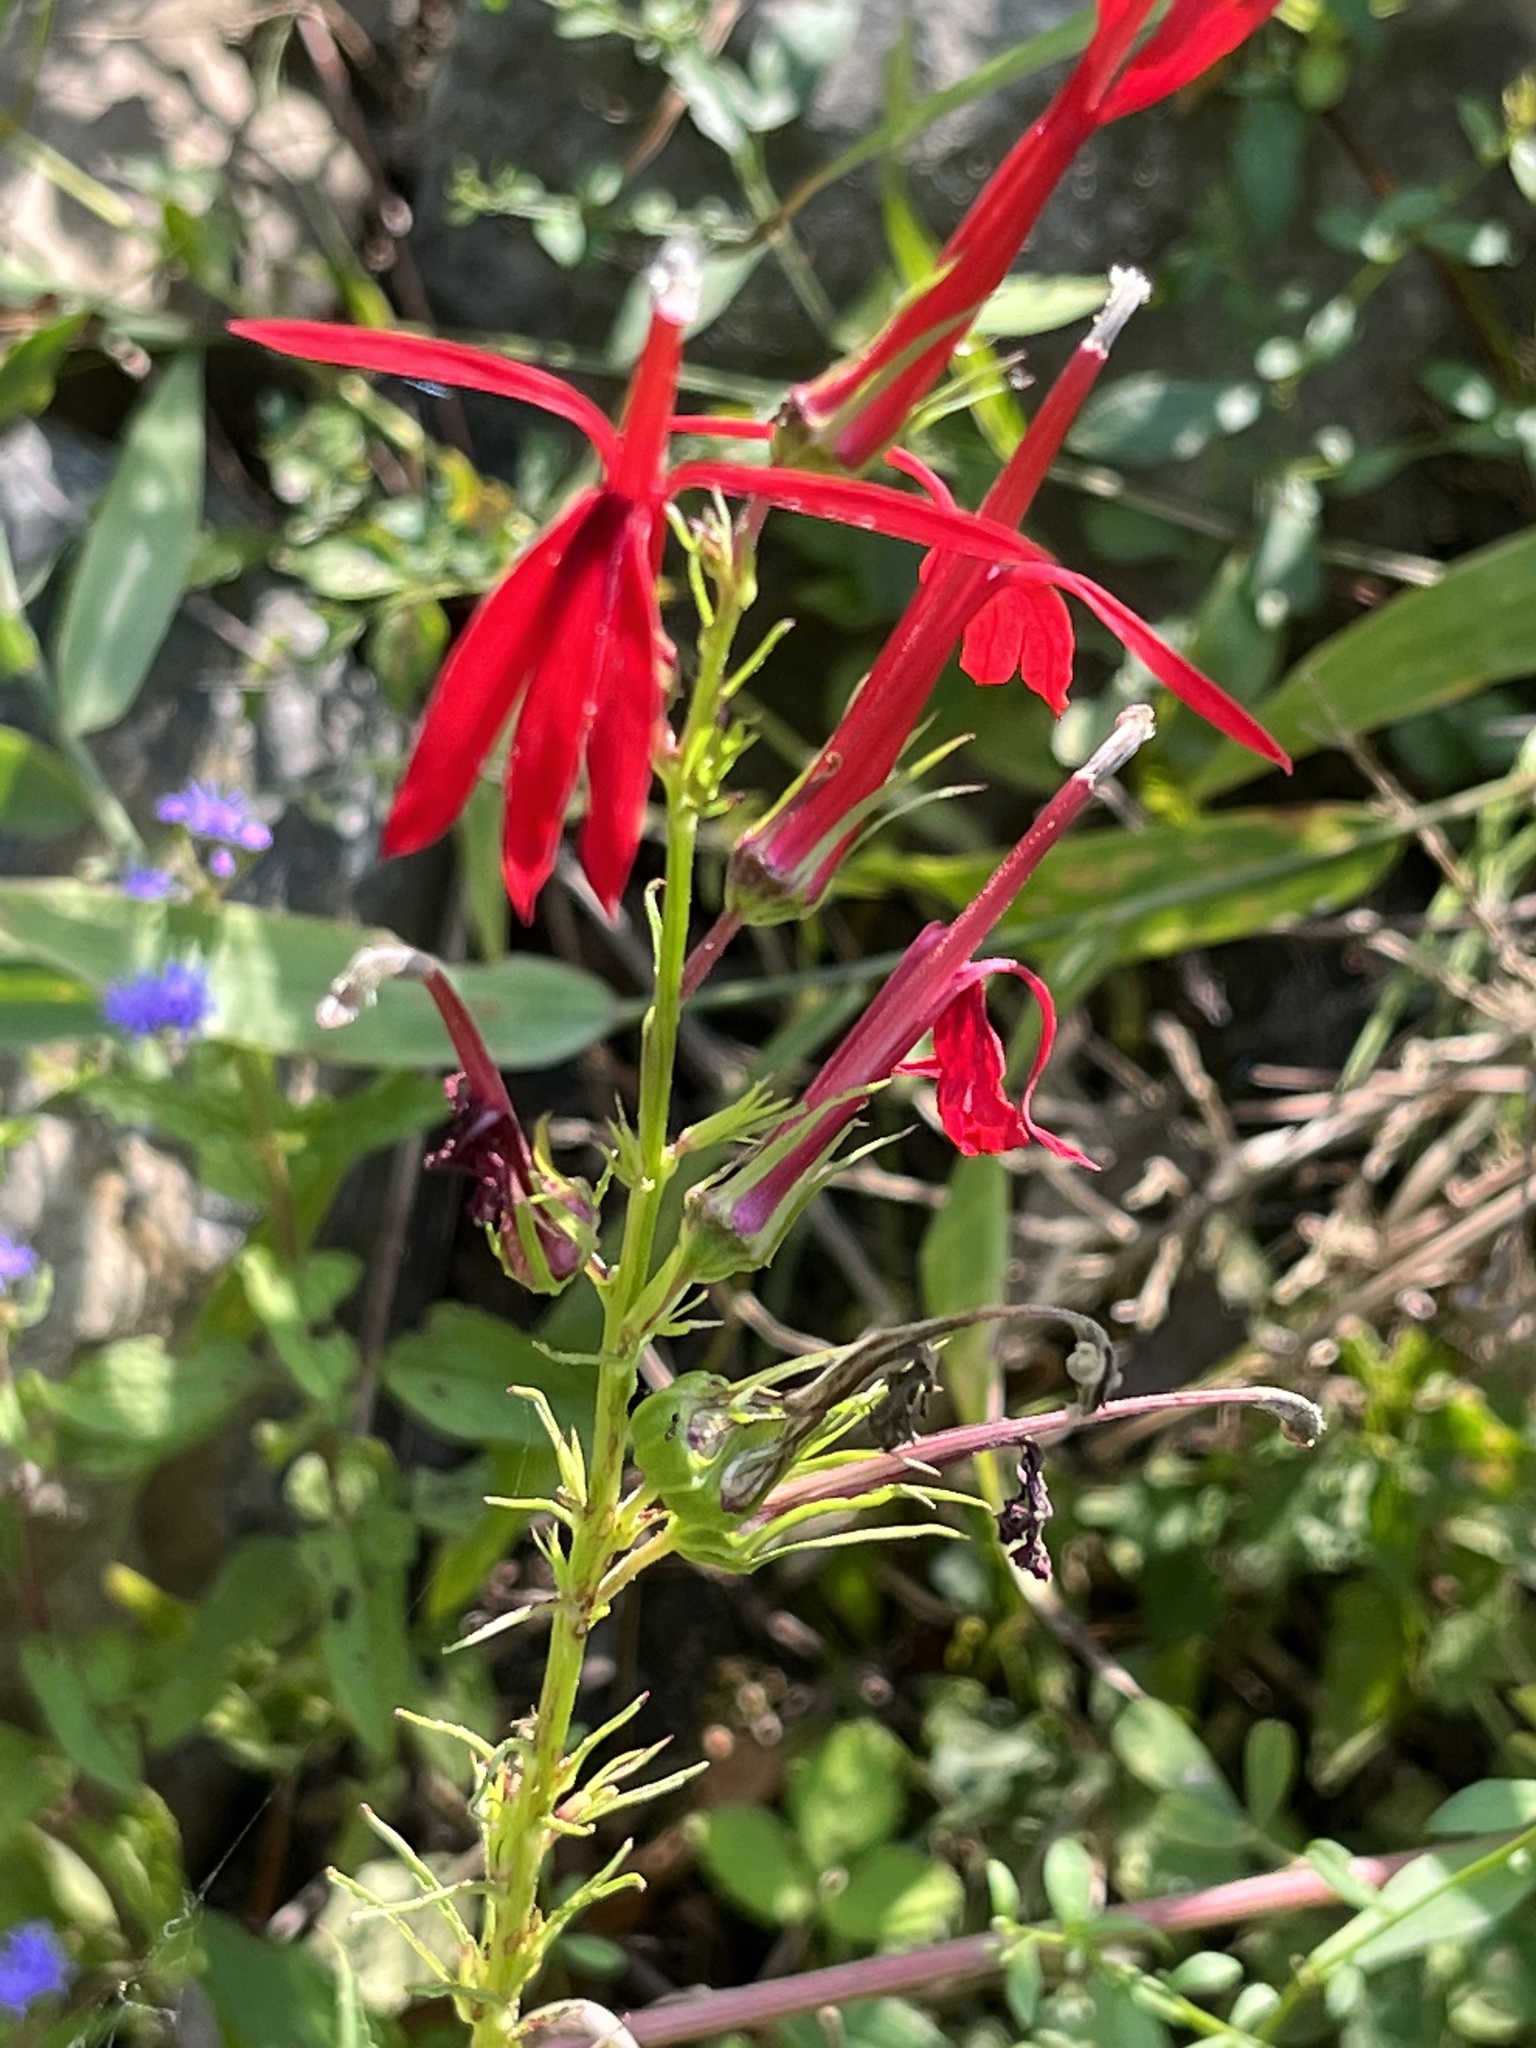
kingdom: Plantae
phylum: Tracheophyta
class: Magnoliopsida
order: Asterales
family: Campanulaceae
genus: Lobelia
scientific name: Lobelia cardinalis
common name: Cardinal flower
